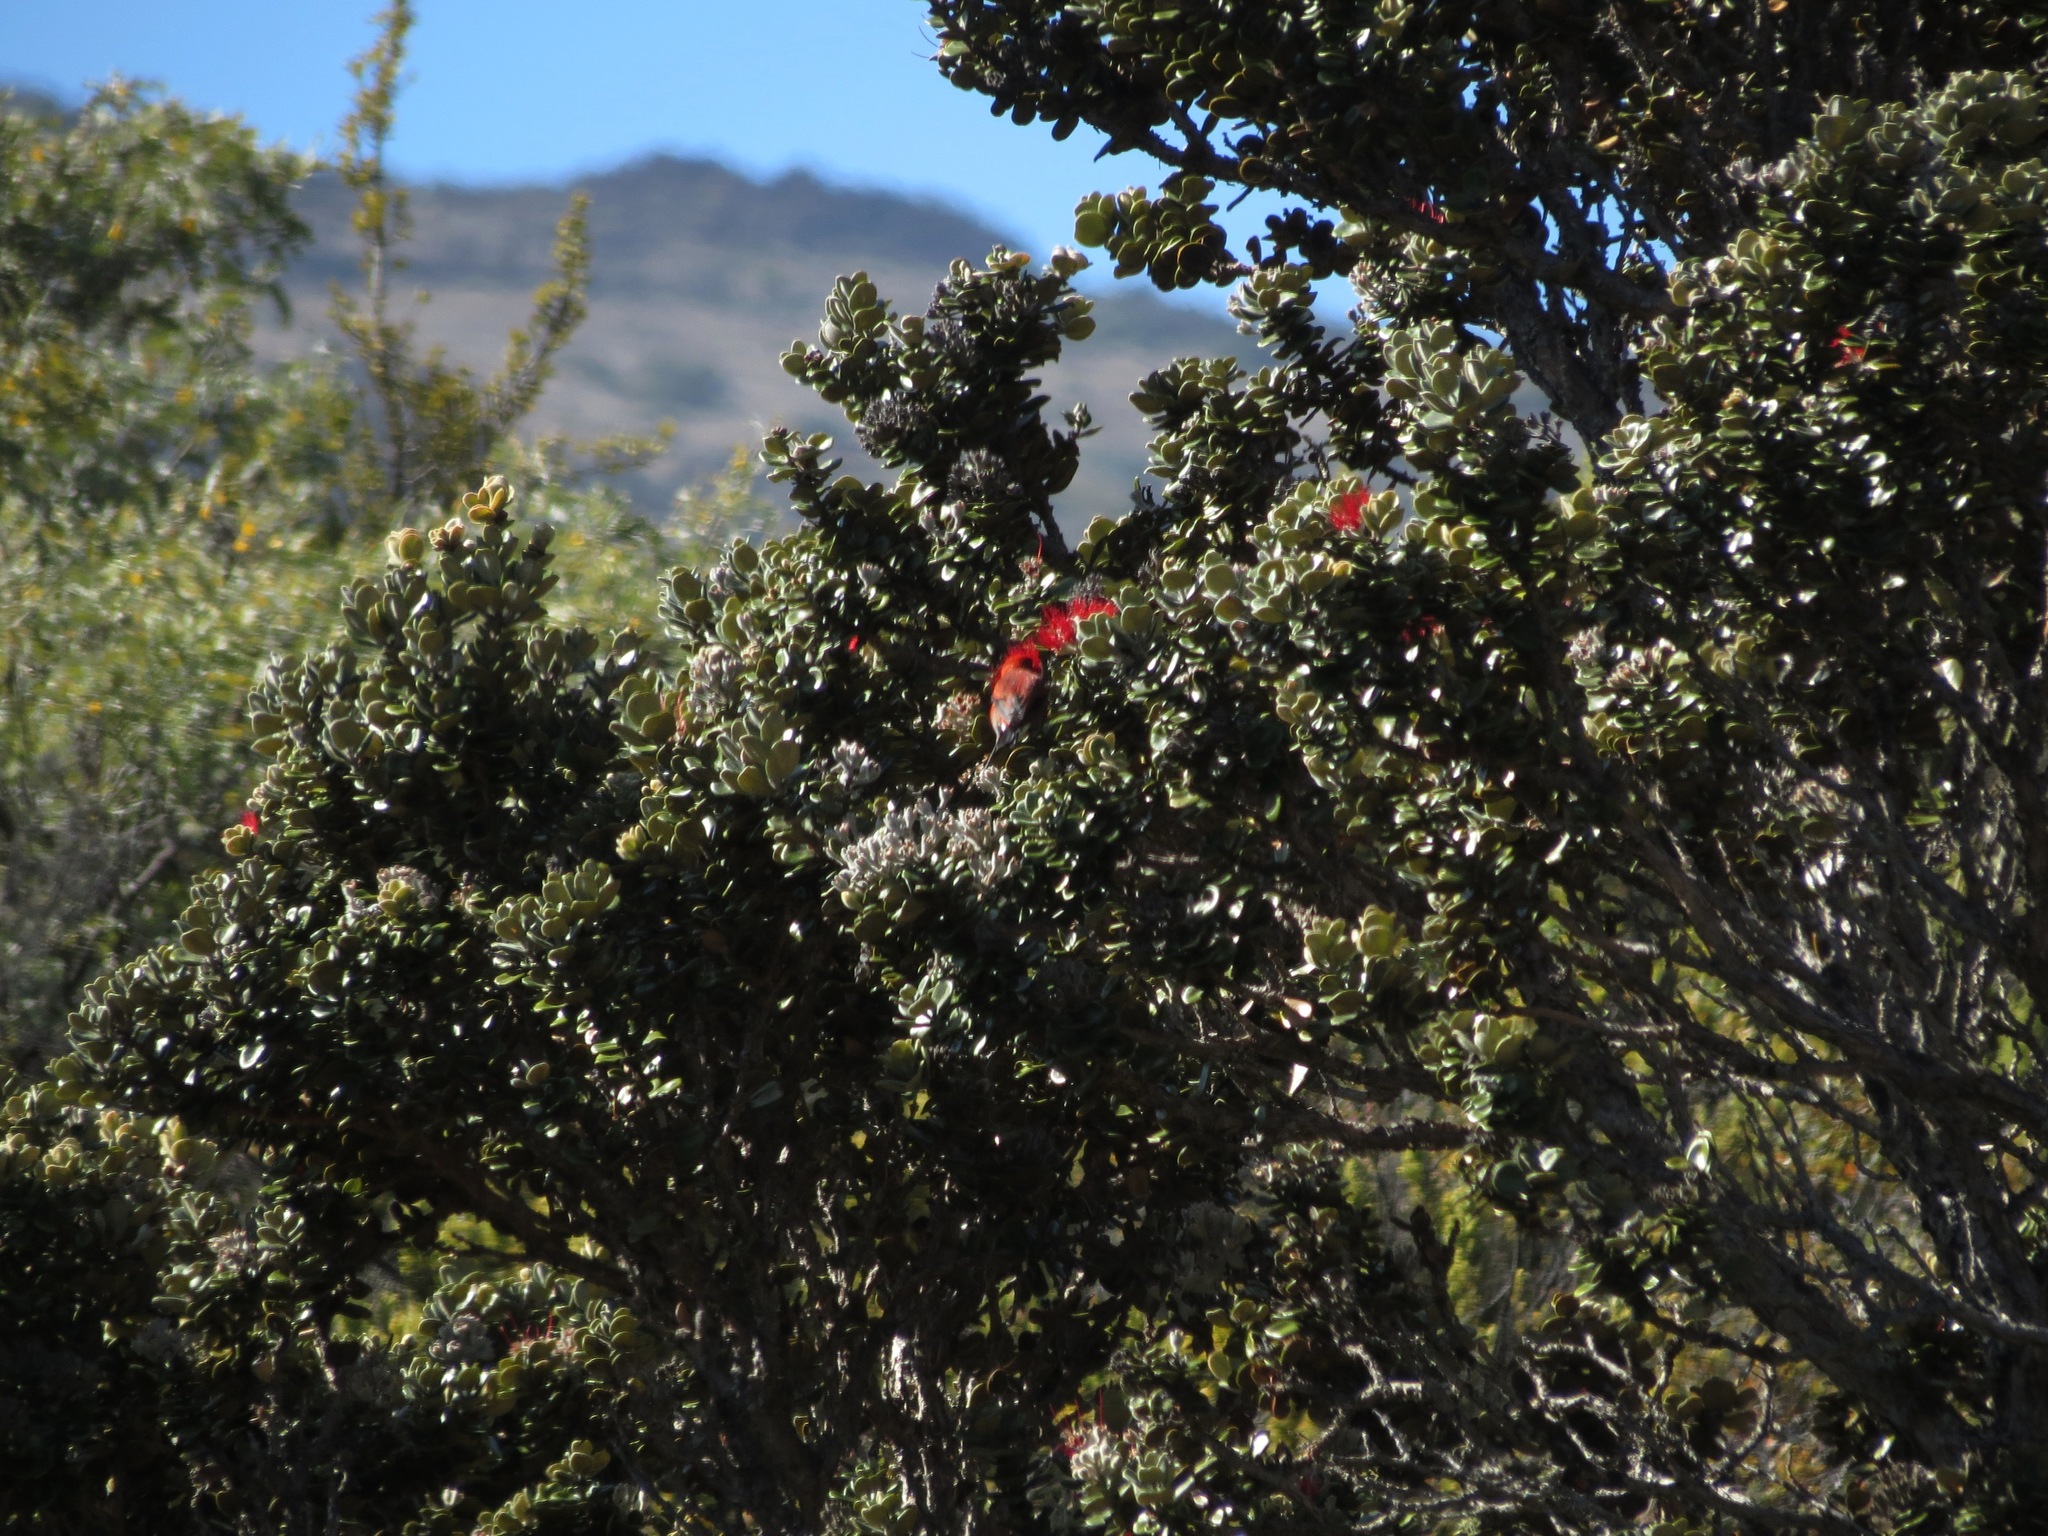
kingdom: Plantae
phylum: Tracheophyta
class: Magnoliopsida
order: Myrtales
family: Myrtaceae
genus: Metrosideros
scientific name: Metrosideros polymorpha
